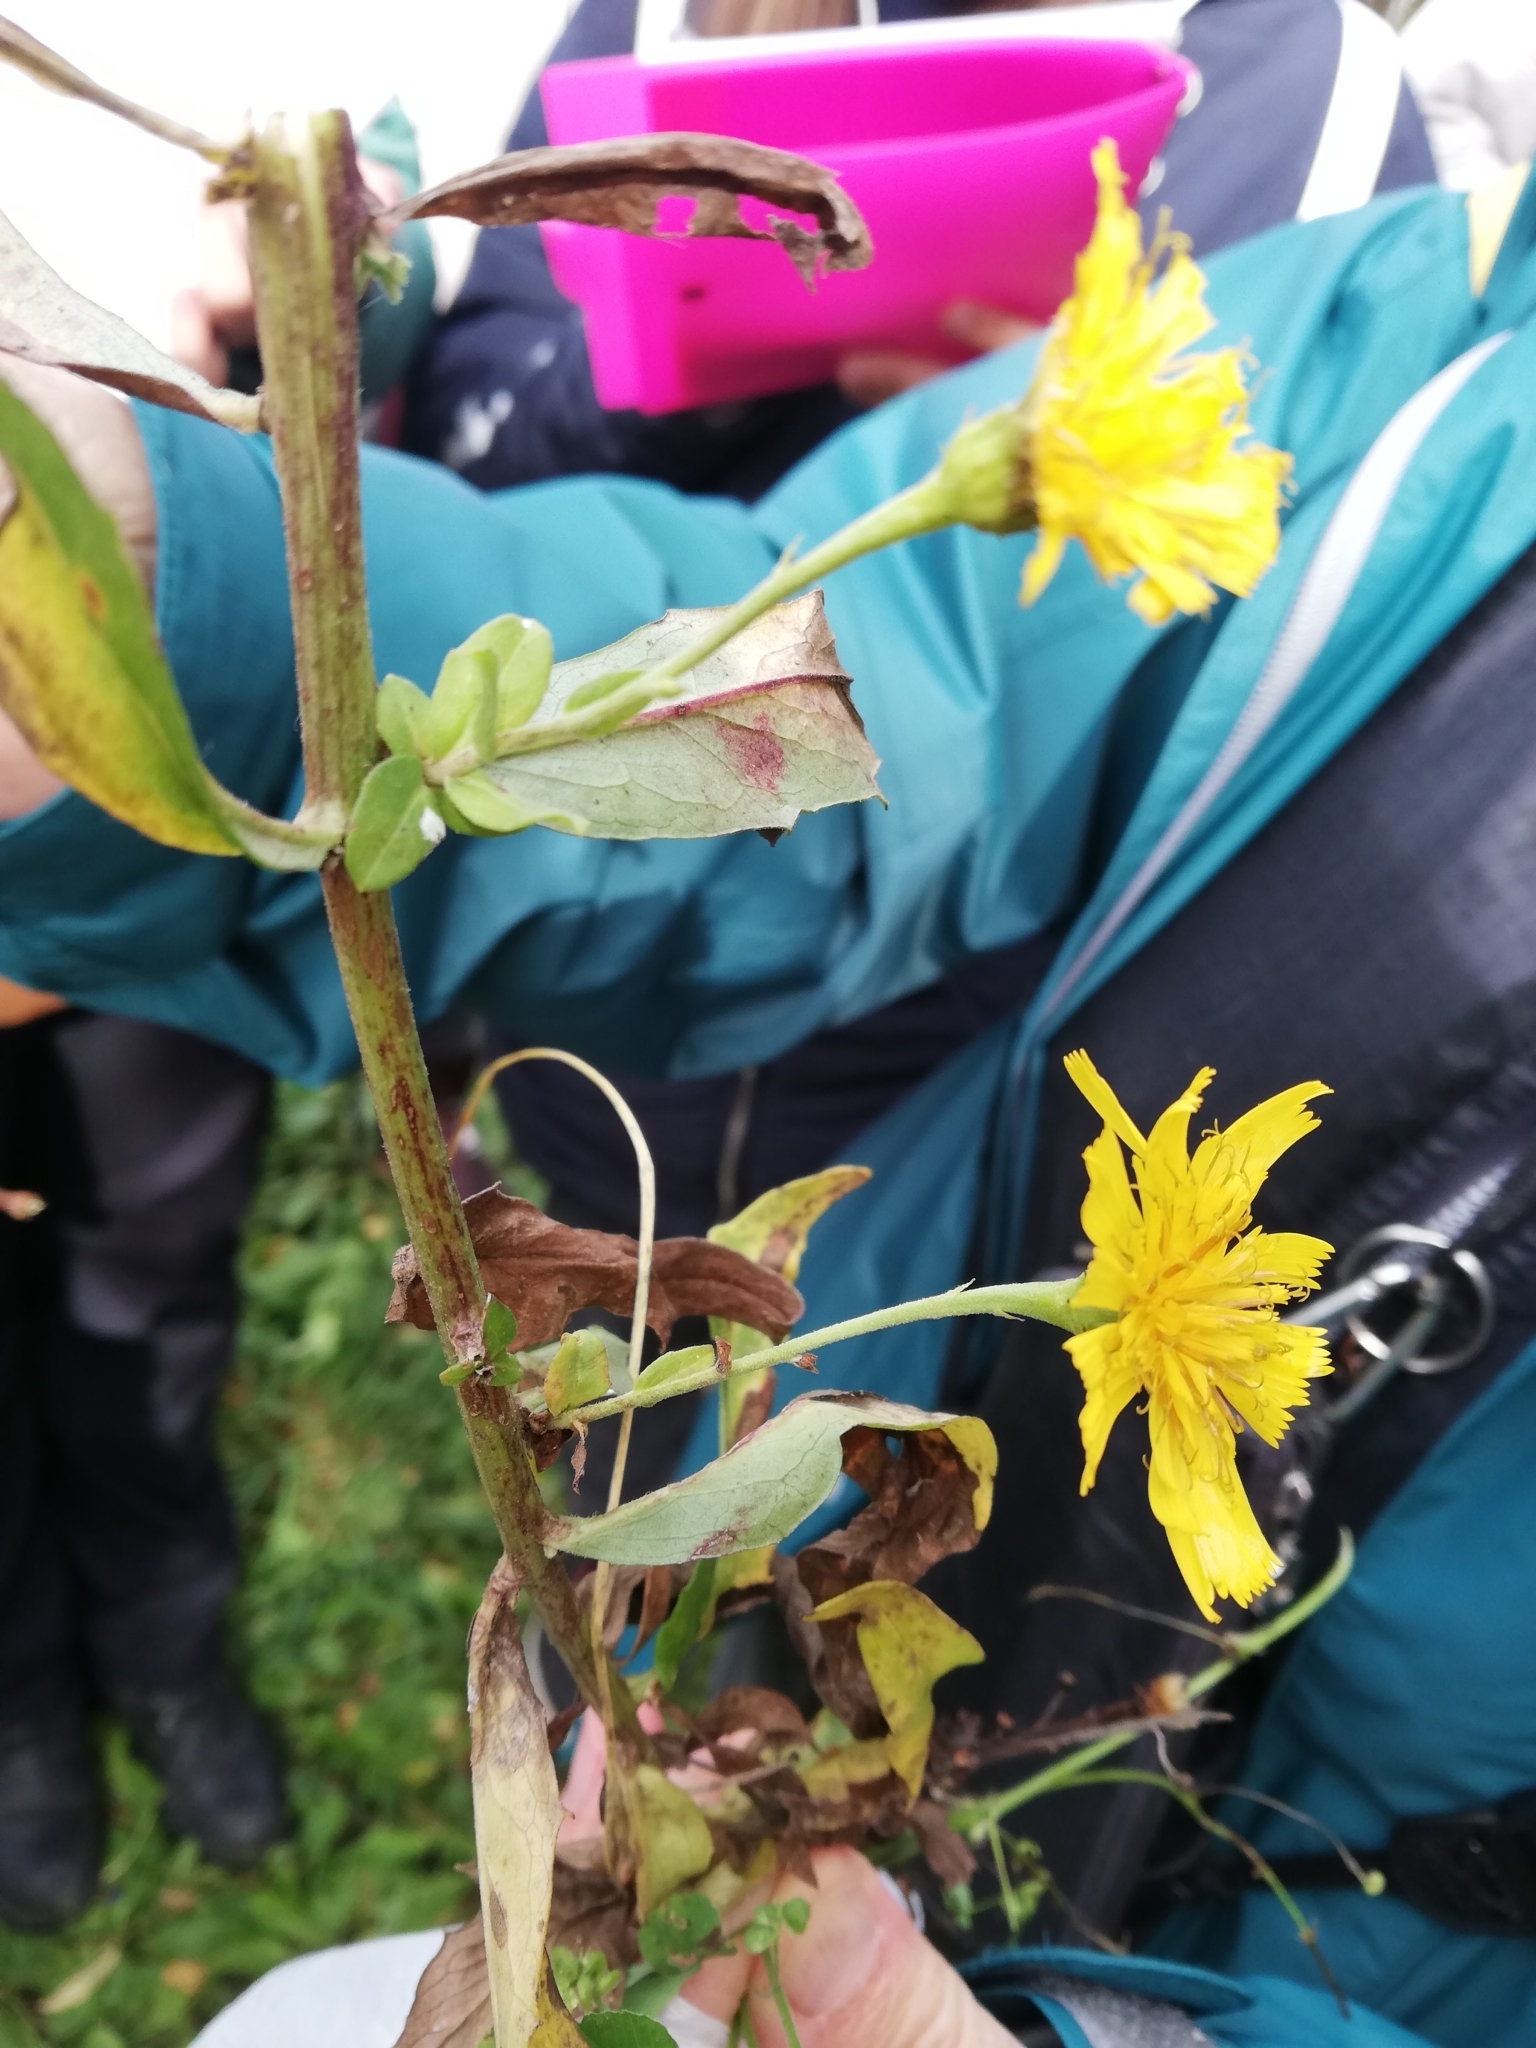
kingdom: Plantae
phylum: Tracheophyta
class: Magnoliopsida
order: Asterales
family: Asteraceae
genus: Hieracium
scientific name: Hieracium umbellatum
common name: Northern hawkweed
